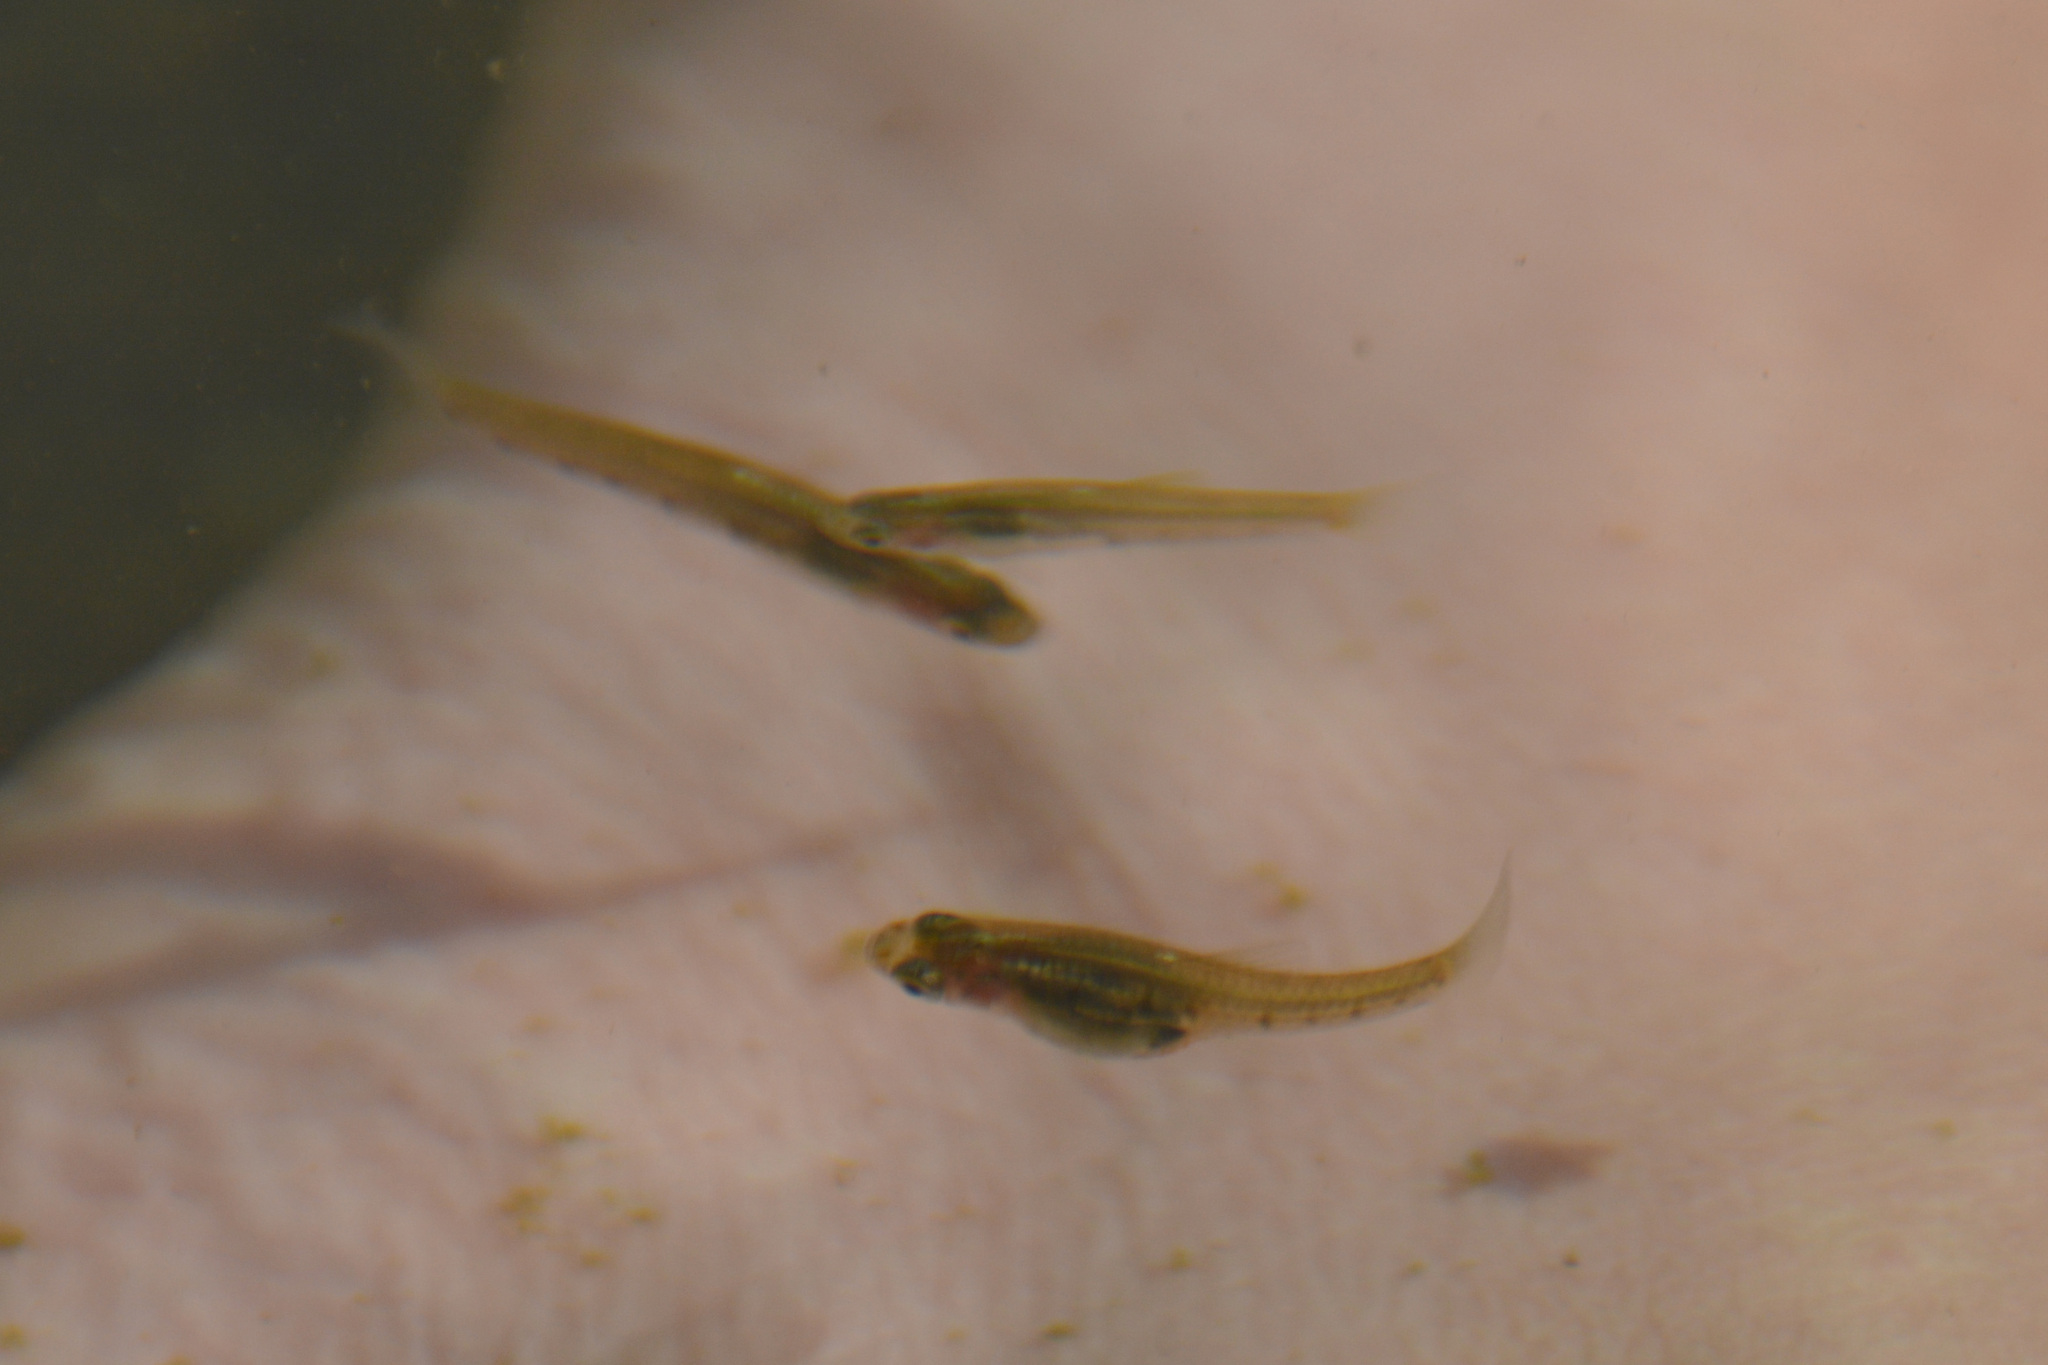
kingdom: Animalia
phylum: Chordata
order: Cyprinodontiformes
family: Poeciliidae
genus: Cnesterodon
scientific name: Cnesterodon decemmaculatus
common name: Ten spotted live-bearer
